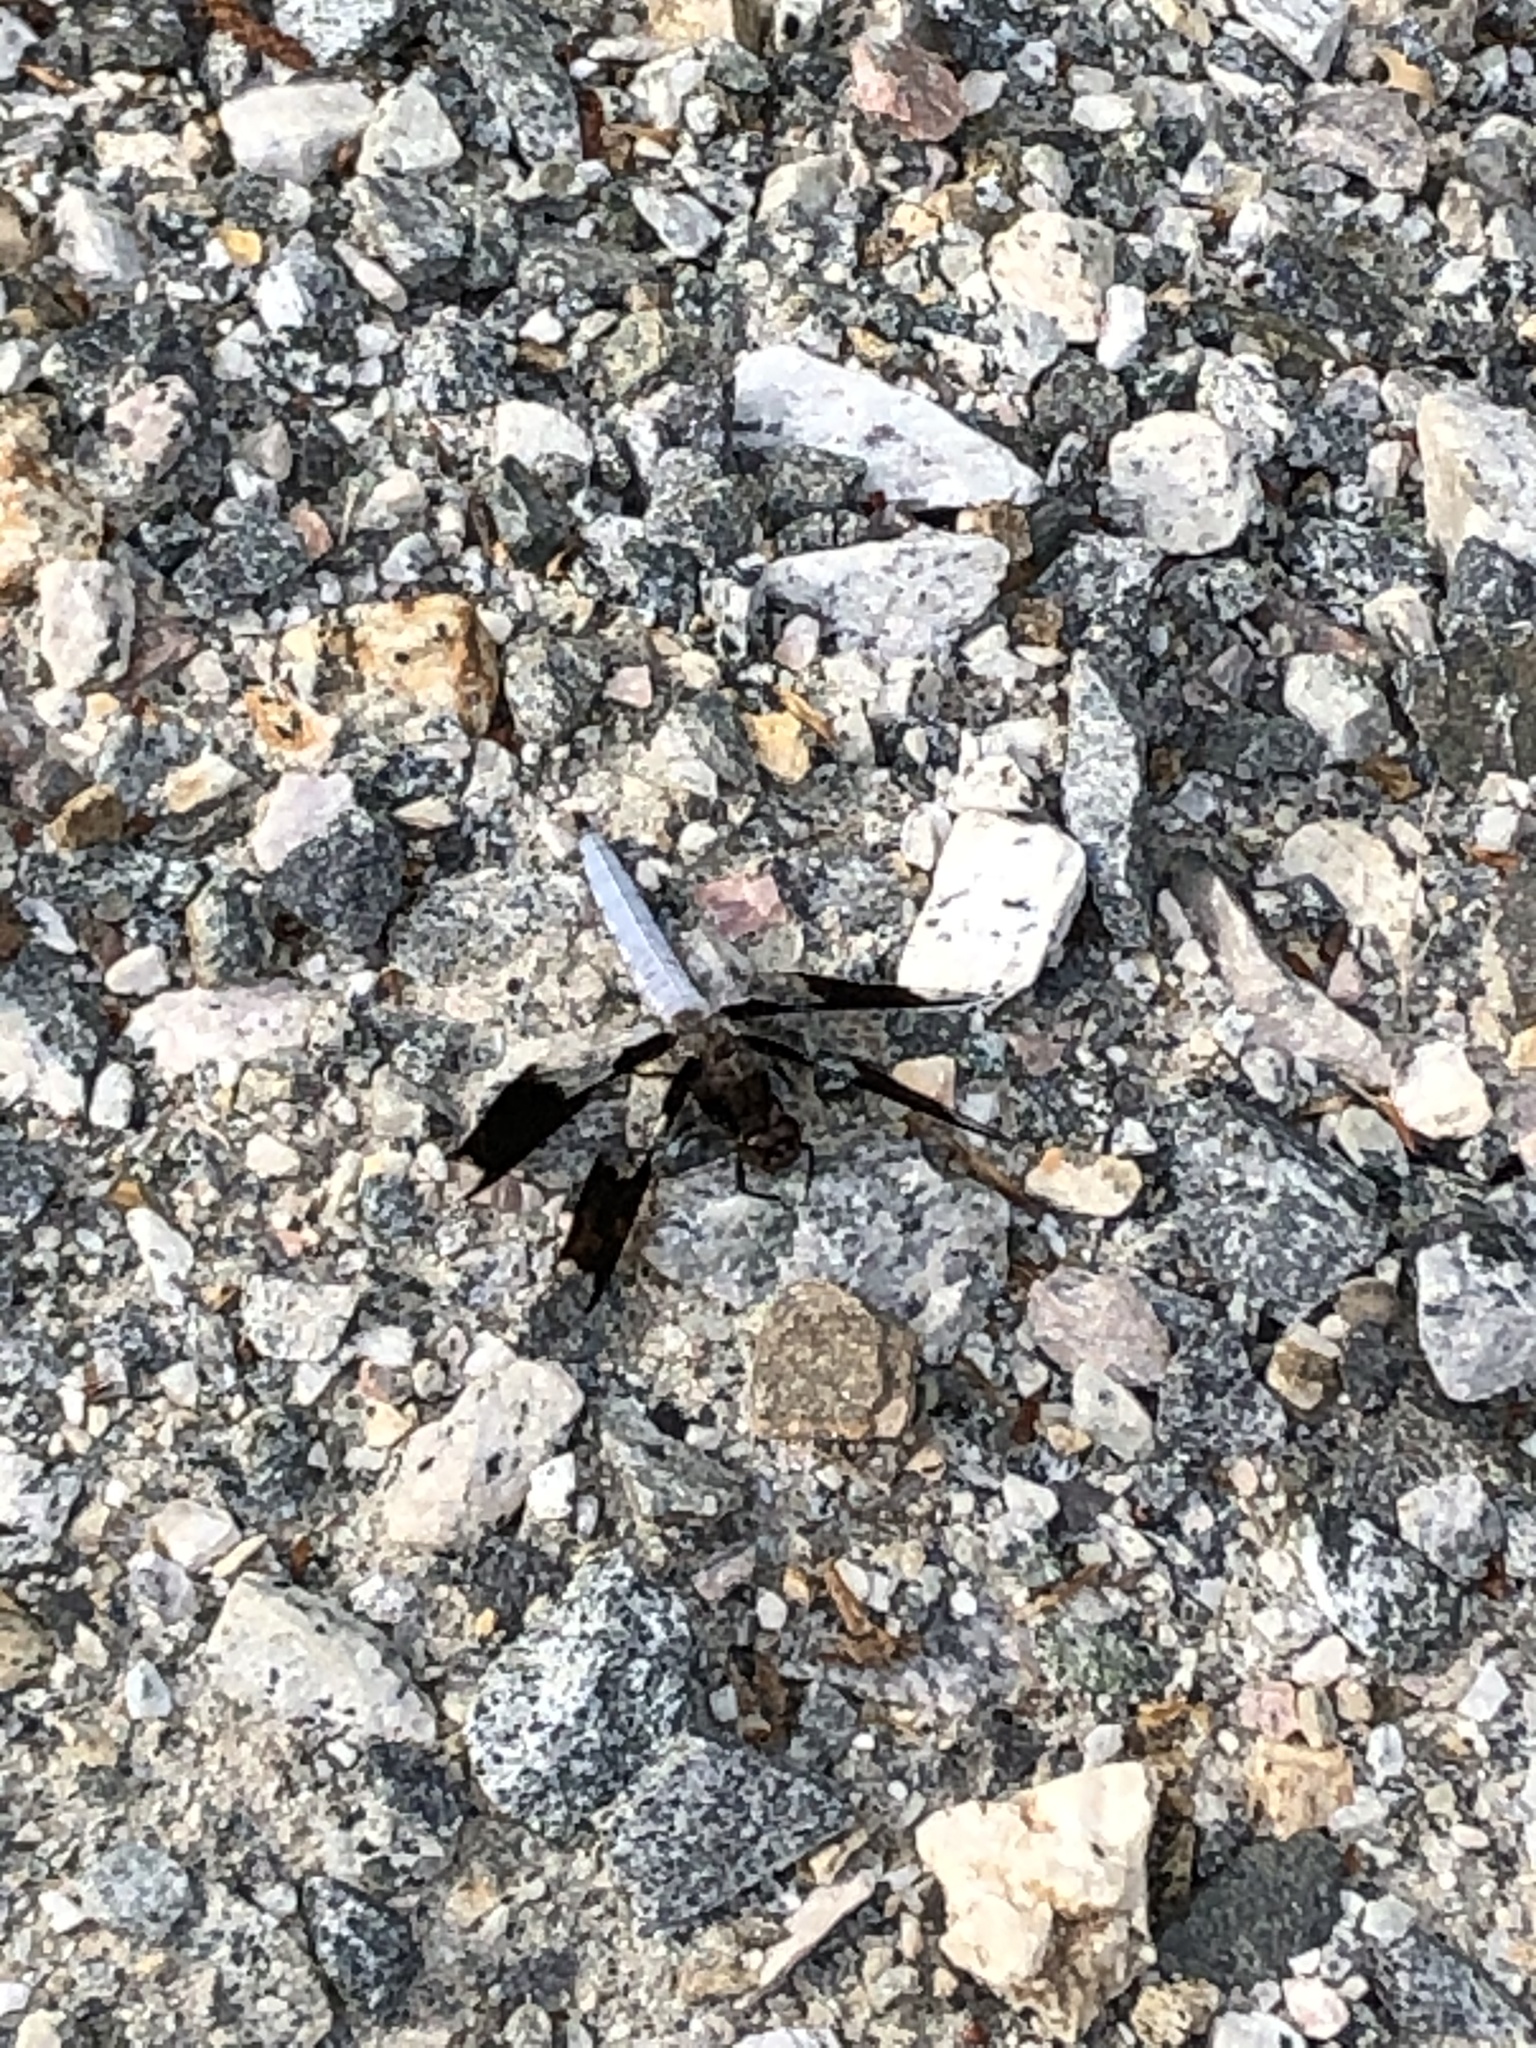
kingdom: Animalia
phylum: Arthropoda
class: Insecta
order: Odonata
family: Libellulidae
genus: Plathemis
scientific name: Plathemis lydia
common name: Common whitetail
